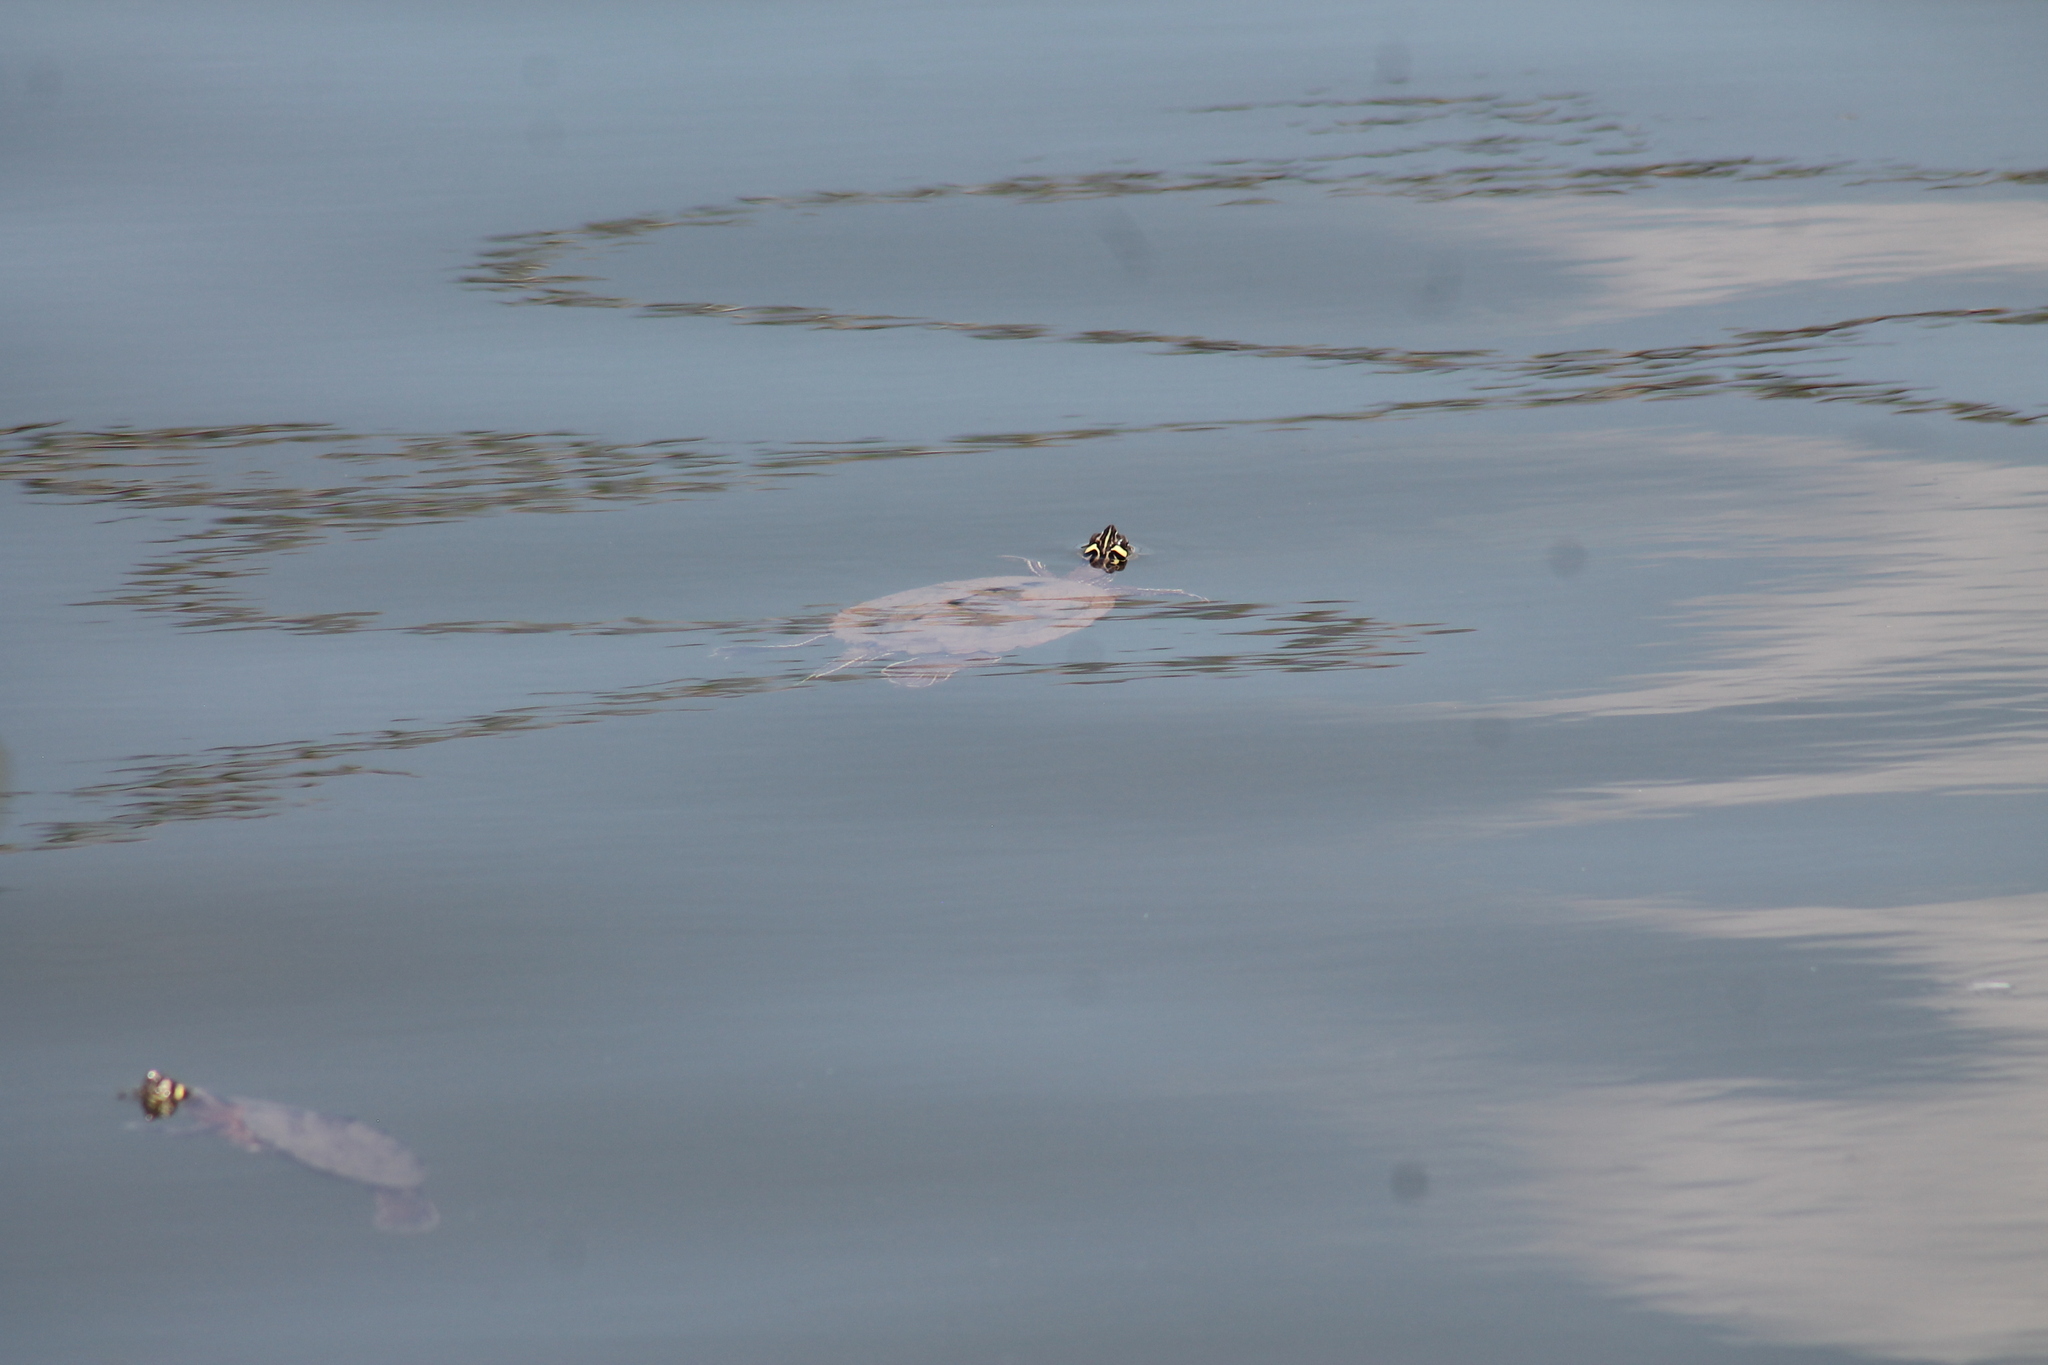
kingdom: Animalia
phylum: Chordata
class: Testudines
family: Emydidae
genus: Graptemys
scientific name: Graptemys ouachitensis
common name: Ouachita map turtle
